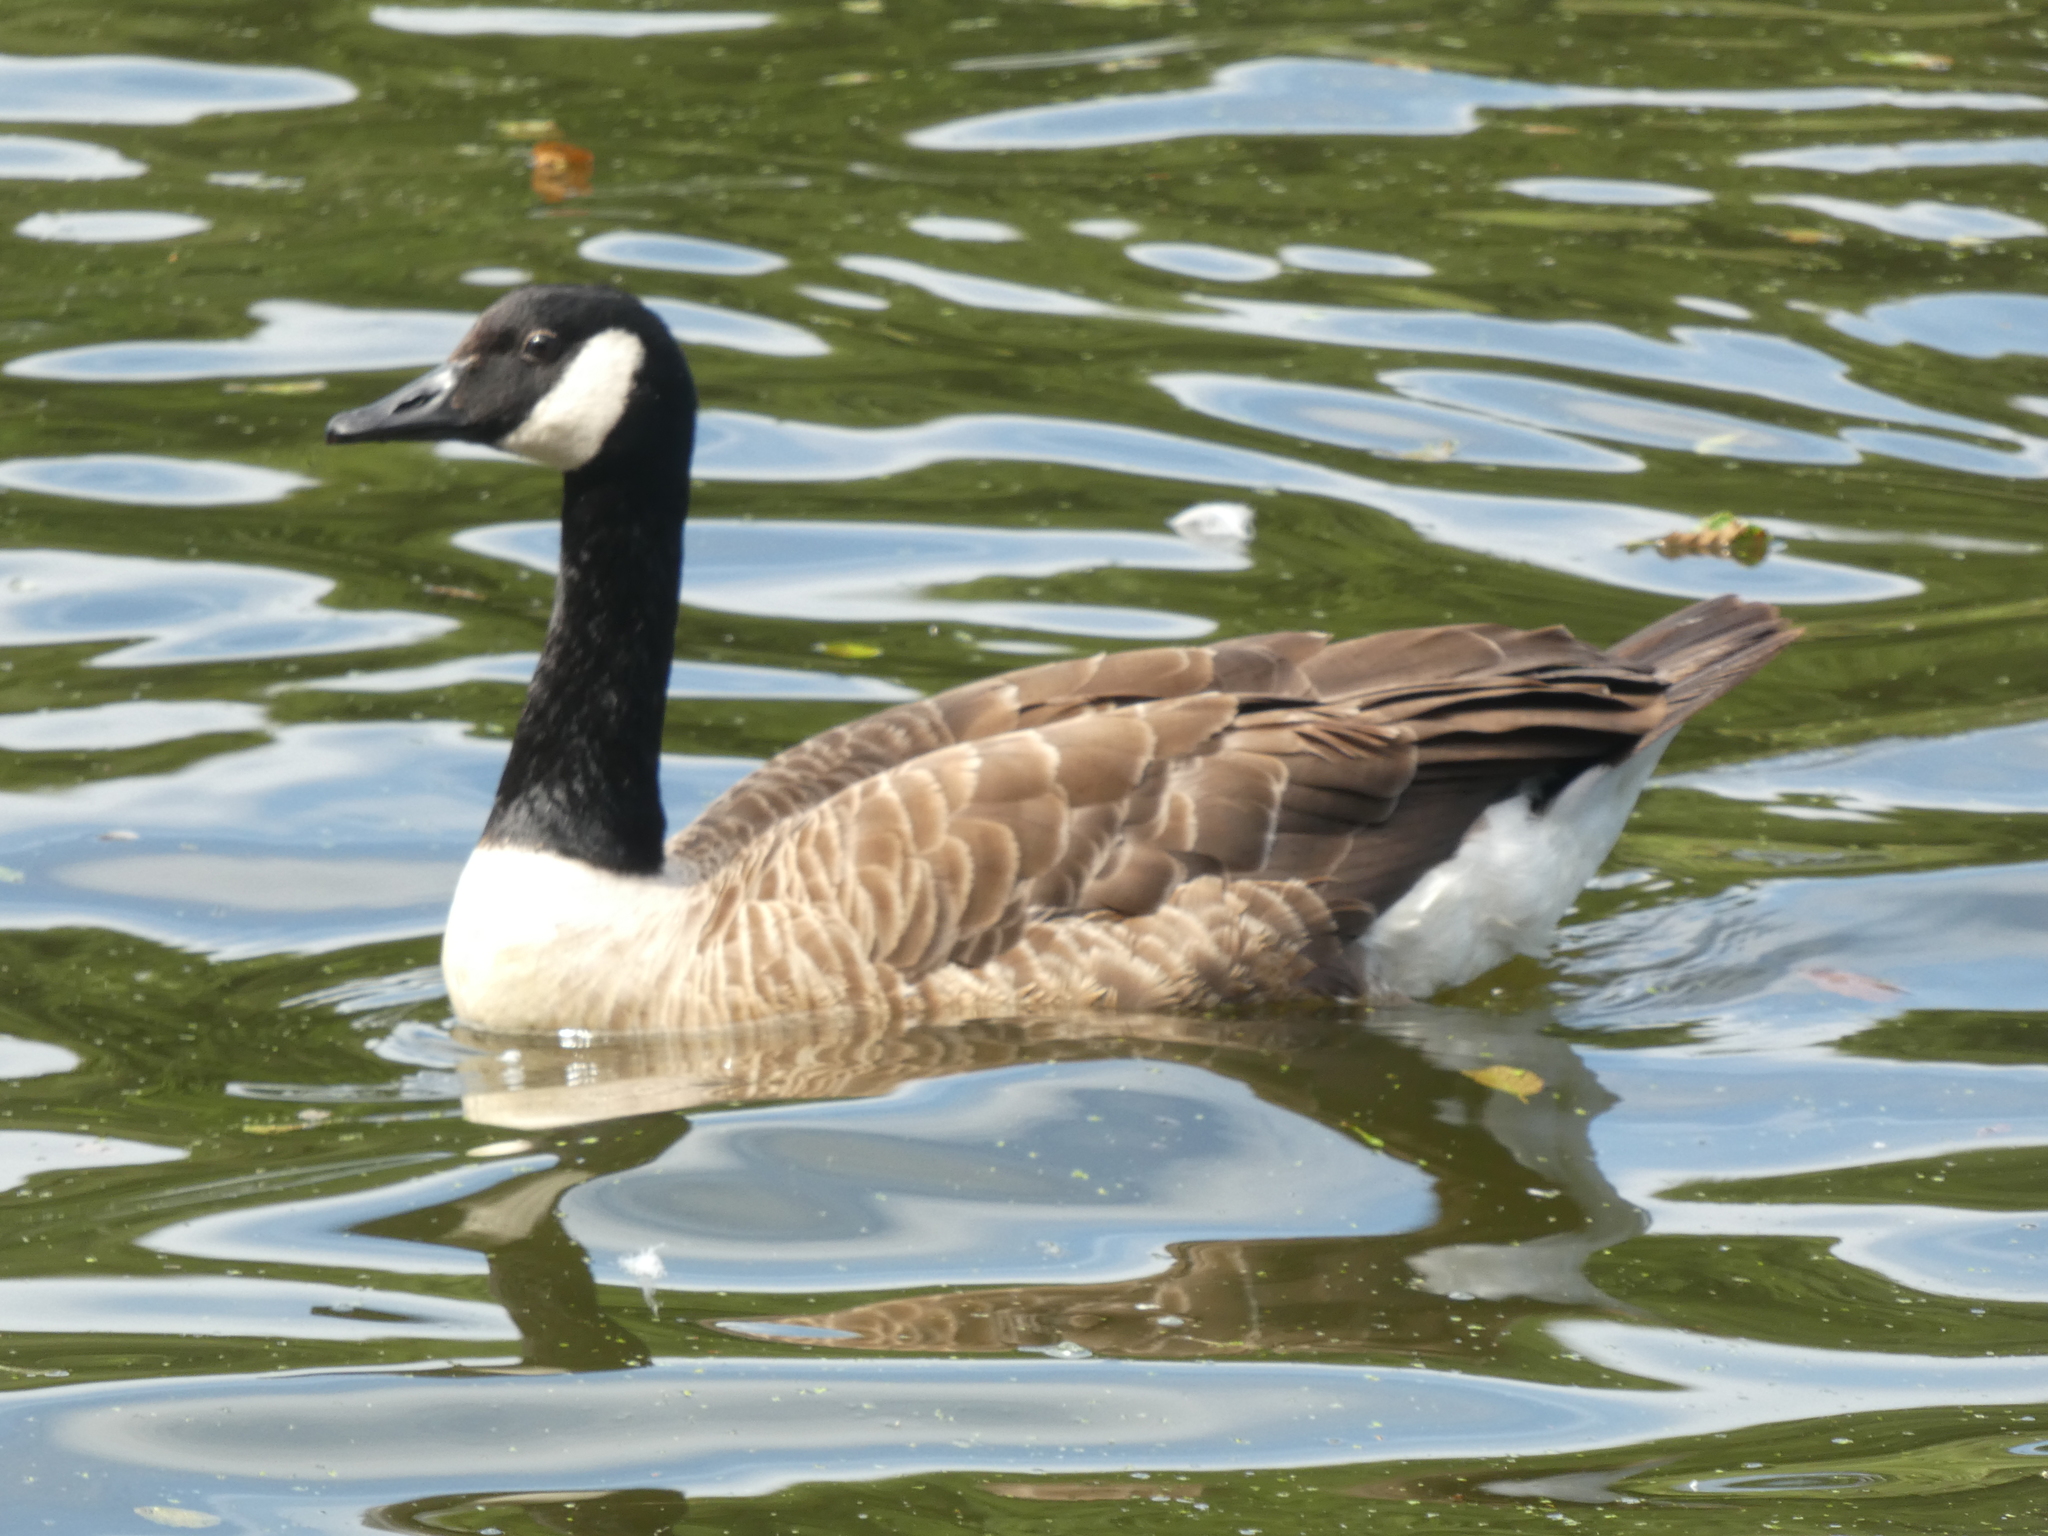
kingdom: Animalia
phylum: Chordata
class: Aves
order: Anseriformes
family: Anatidae
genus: Branta
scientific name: Branta canadensis
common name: Canada goose
